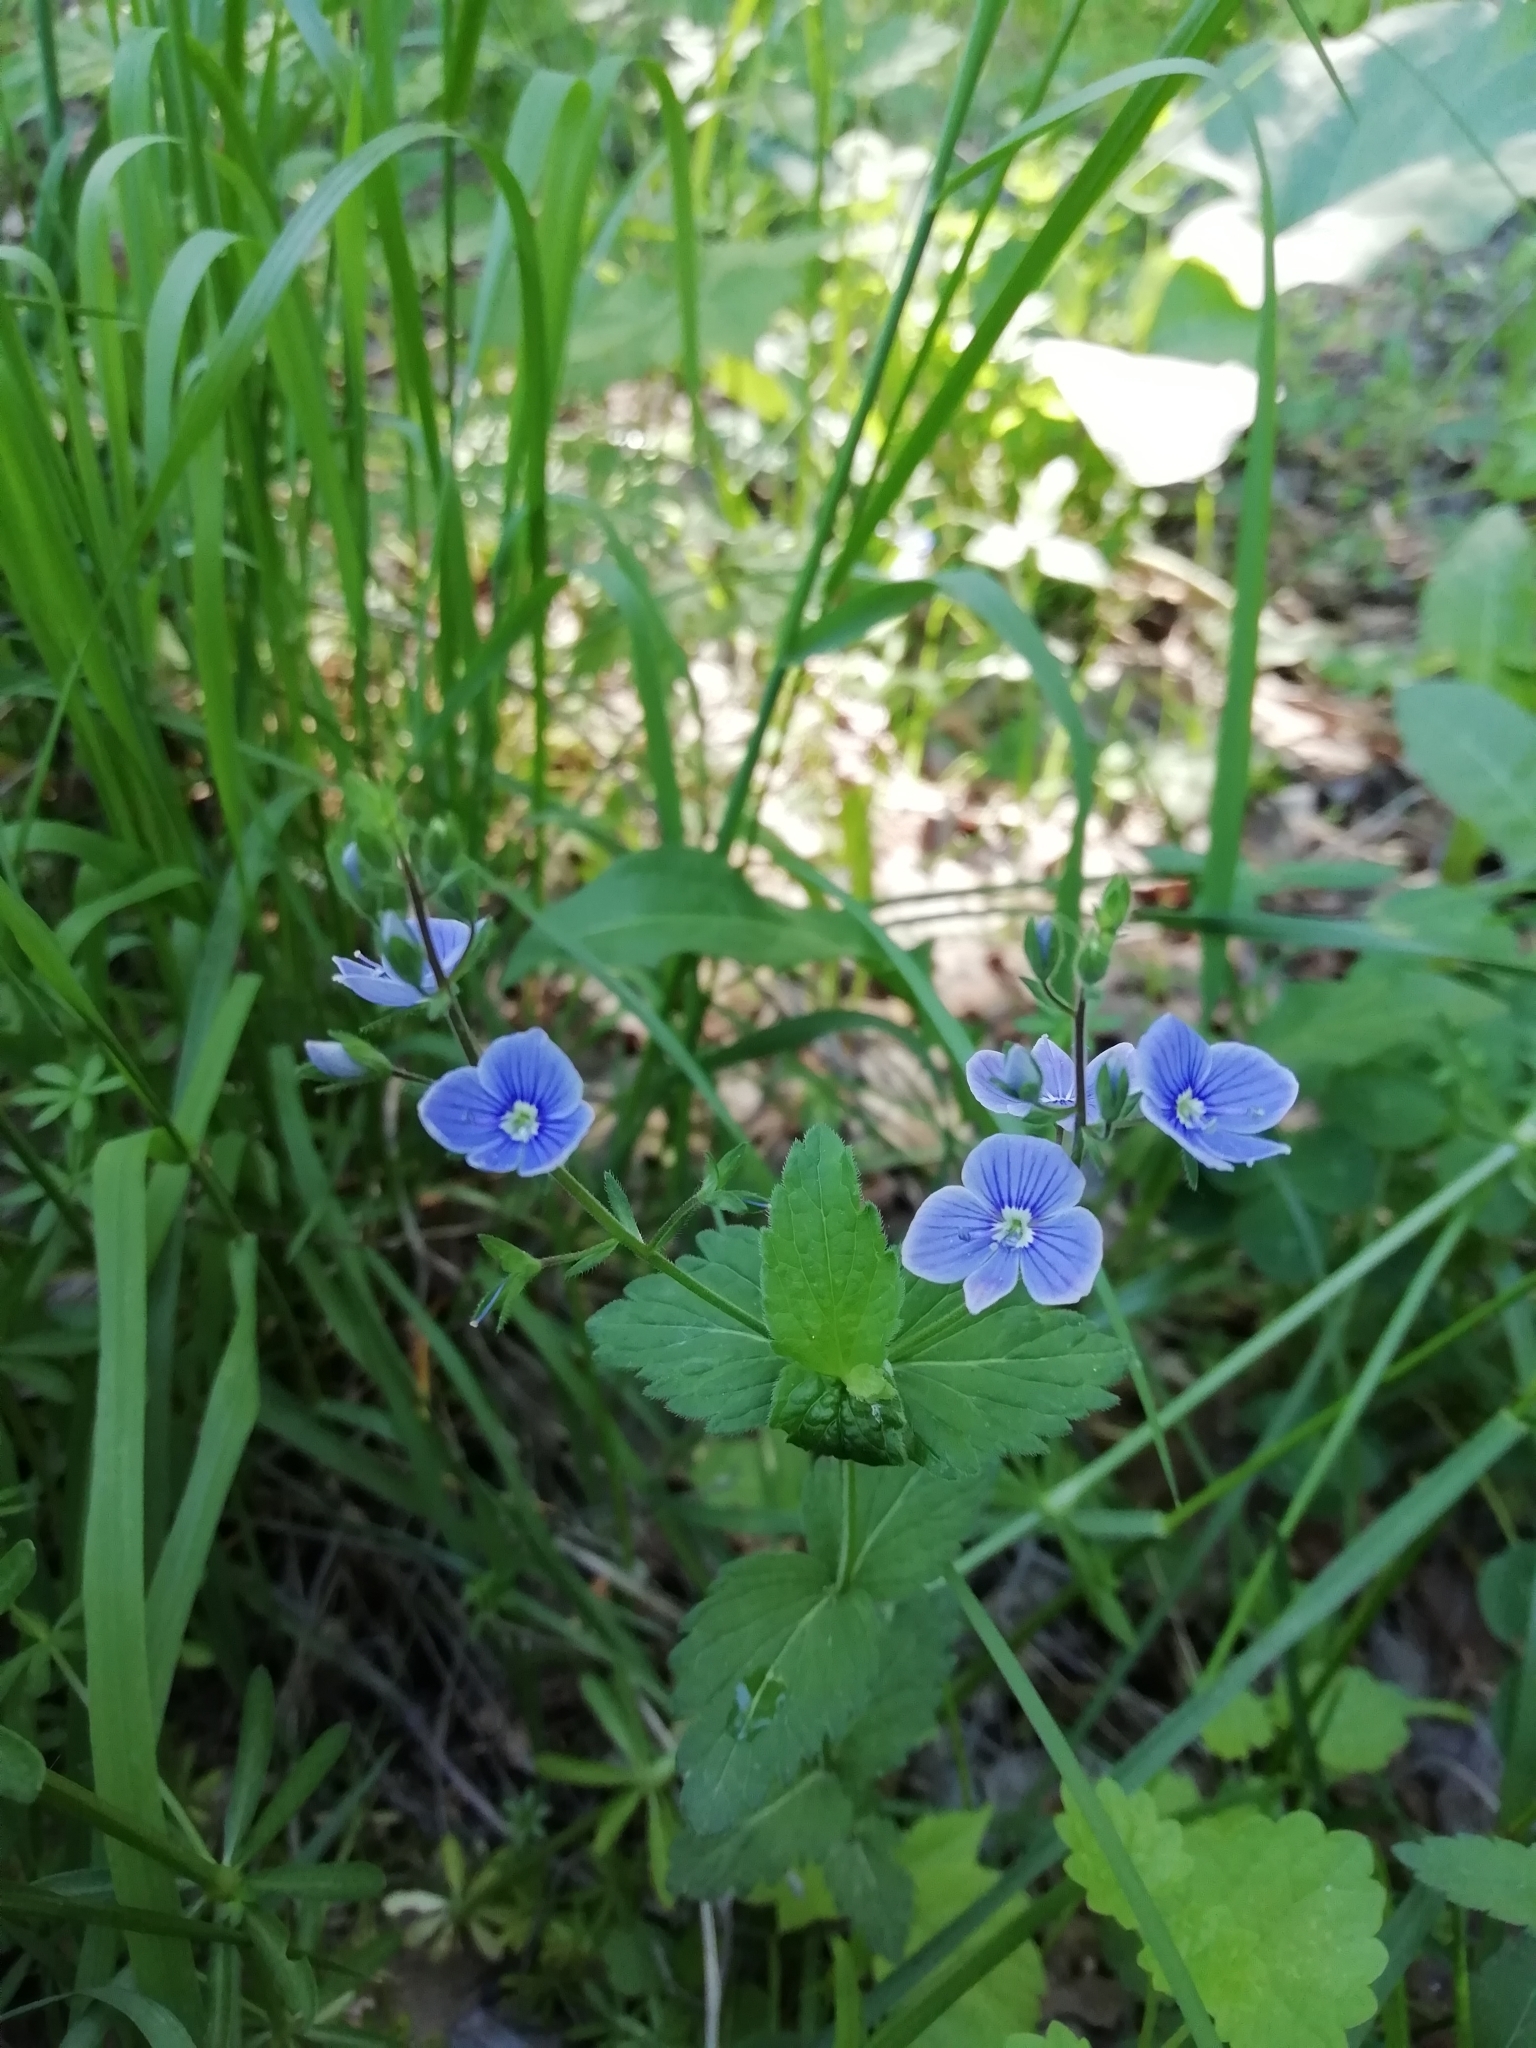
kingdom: Plantae
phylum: Tracheophyta
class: Magnoliopsida
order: Lamiales
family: Plantaginaceae
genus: Veronica
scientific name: Veronica chamaedrys
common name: Germander speedwell
